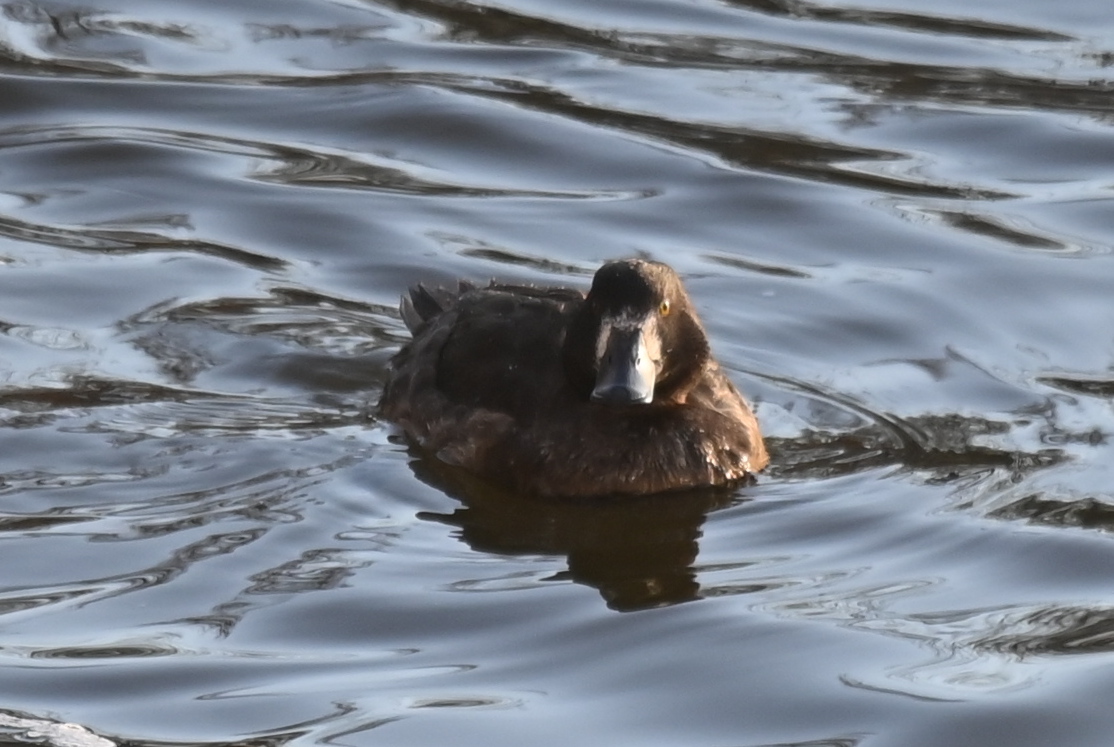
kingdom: Animalia
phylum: Chordata
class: Aves
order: Anseriformes
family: Anatidae
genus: Aythya
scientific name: Aythya fuligula
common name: Tufted duck
